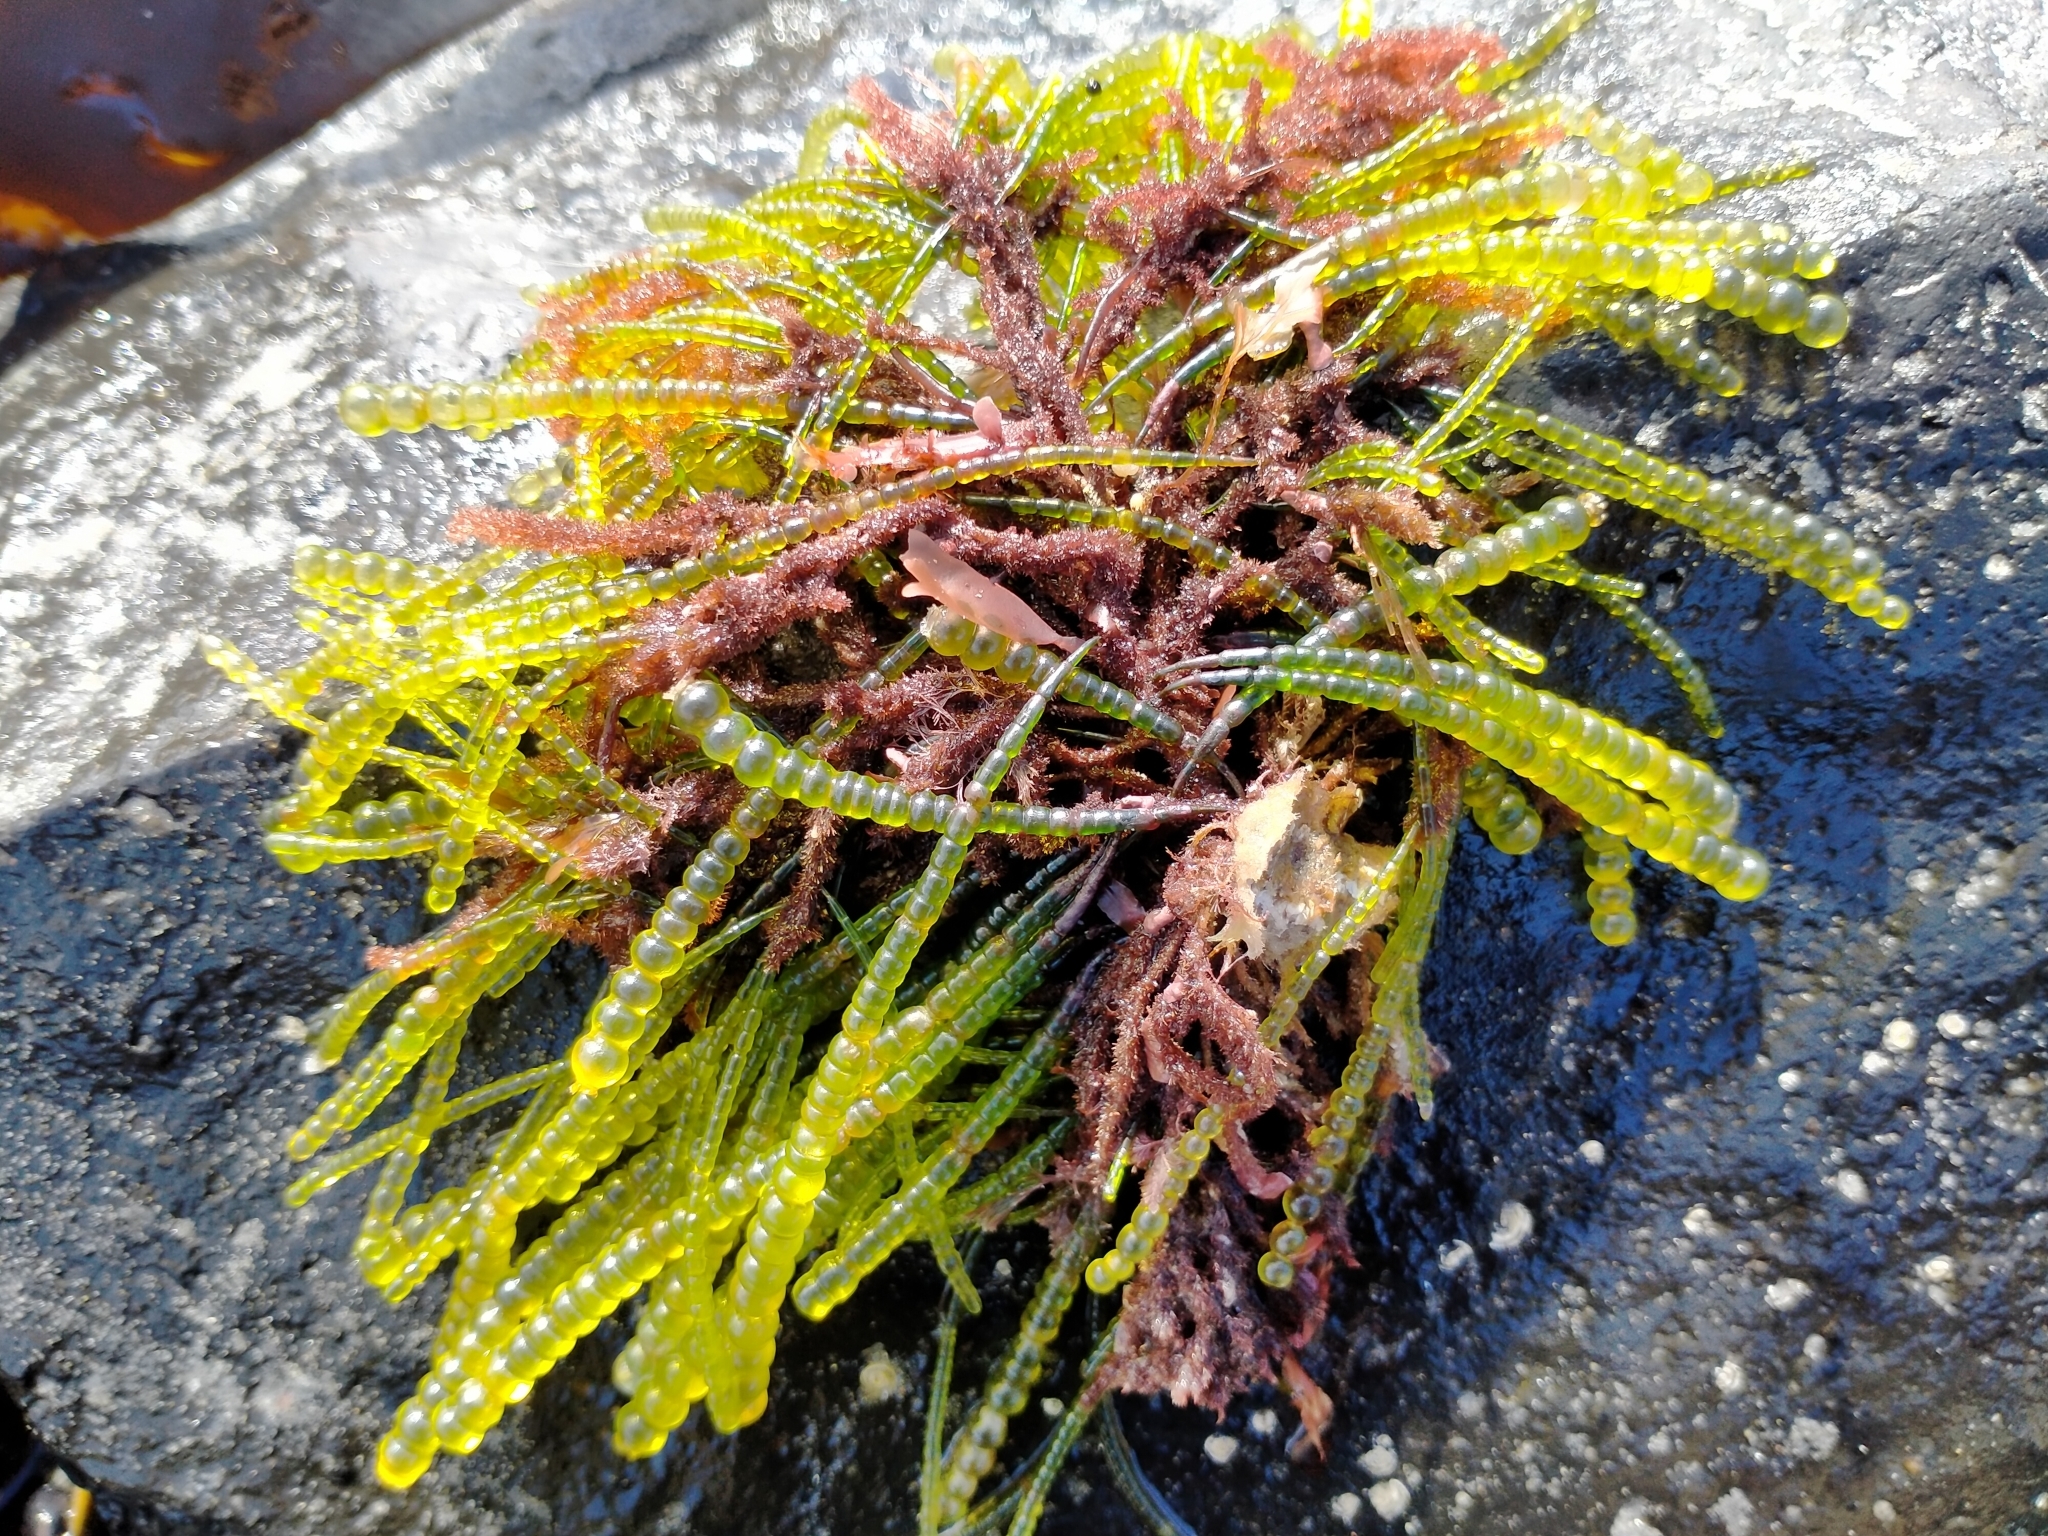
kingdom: Plantae
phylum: Chlorophyta
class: Ulvophyceae
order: Cladophorales
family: Cladophoraceae
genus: Chaetomorpha
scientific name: Chaetomorpha coliformis
